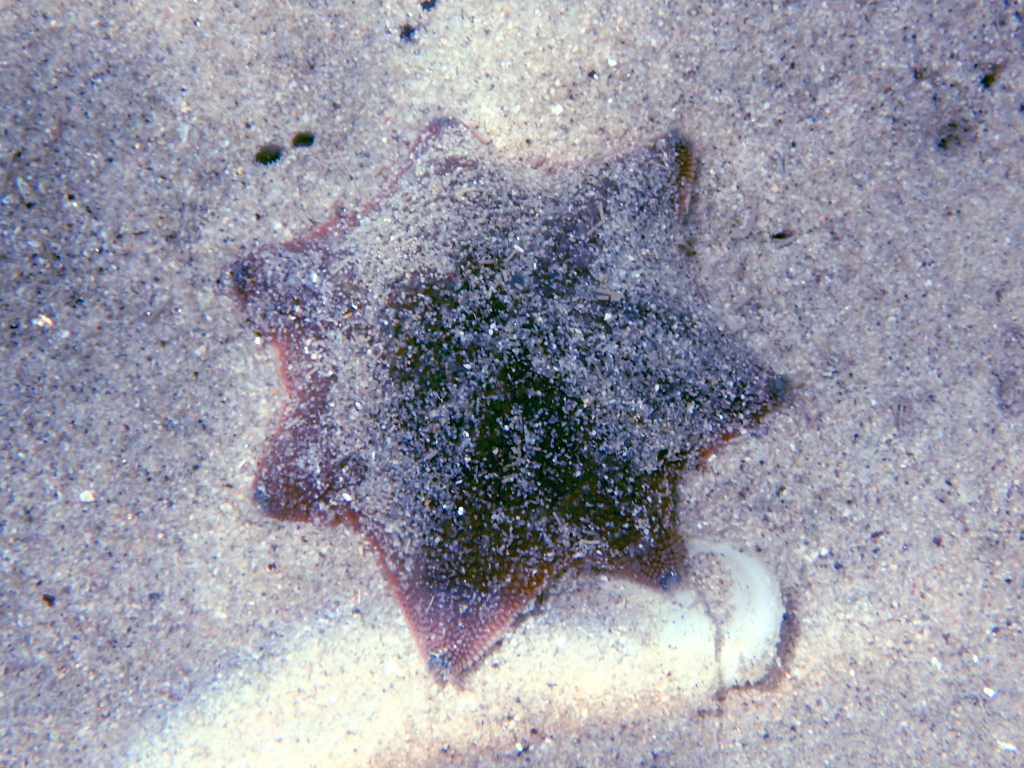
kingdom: Animalia
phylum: Echinodermata
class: Asteroidea
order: Valvatida
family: Asterinidae
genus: Patiriella
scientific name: Patiriella regularis
